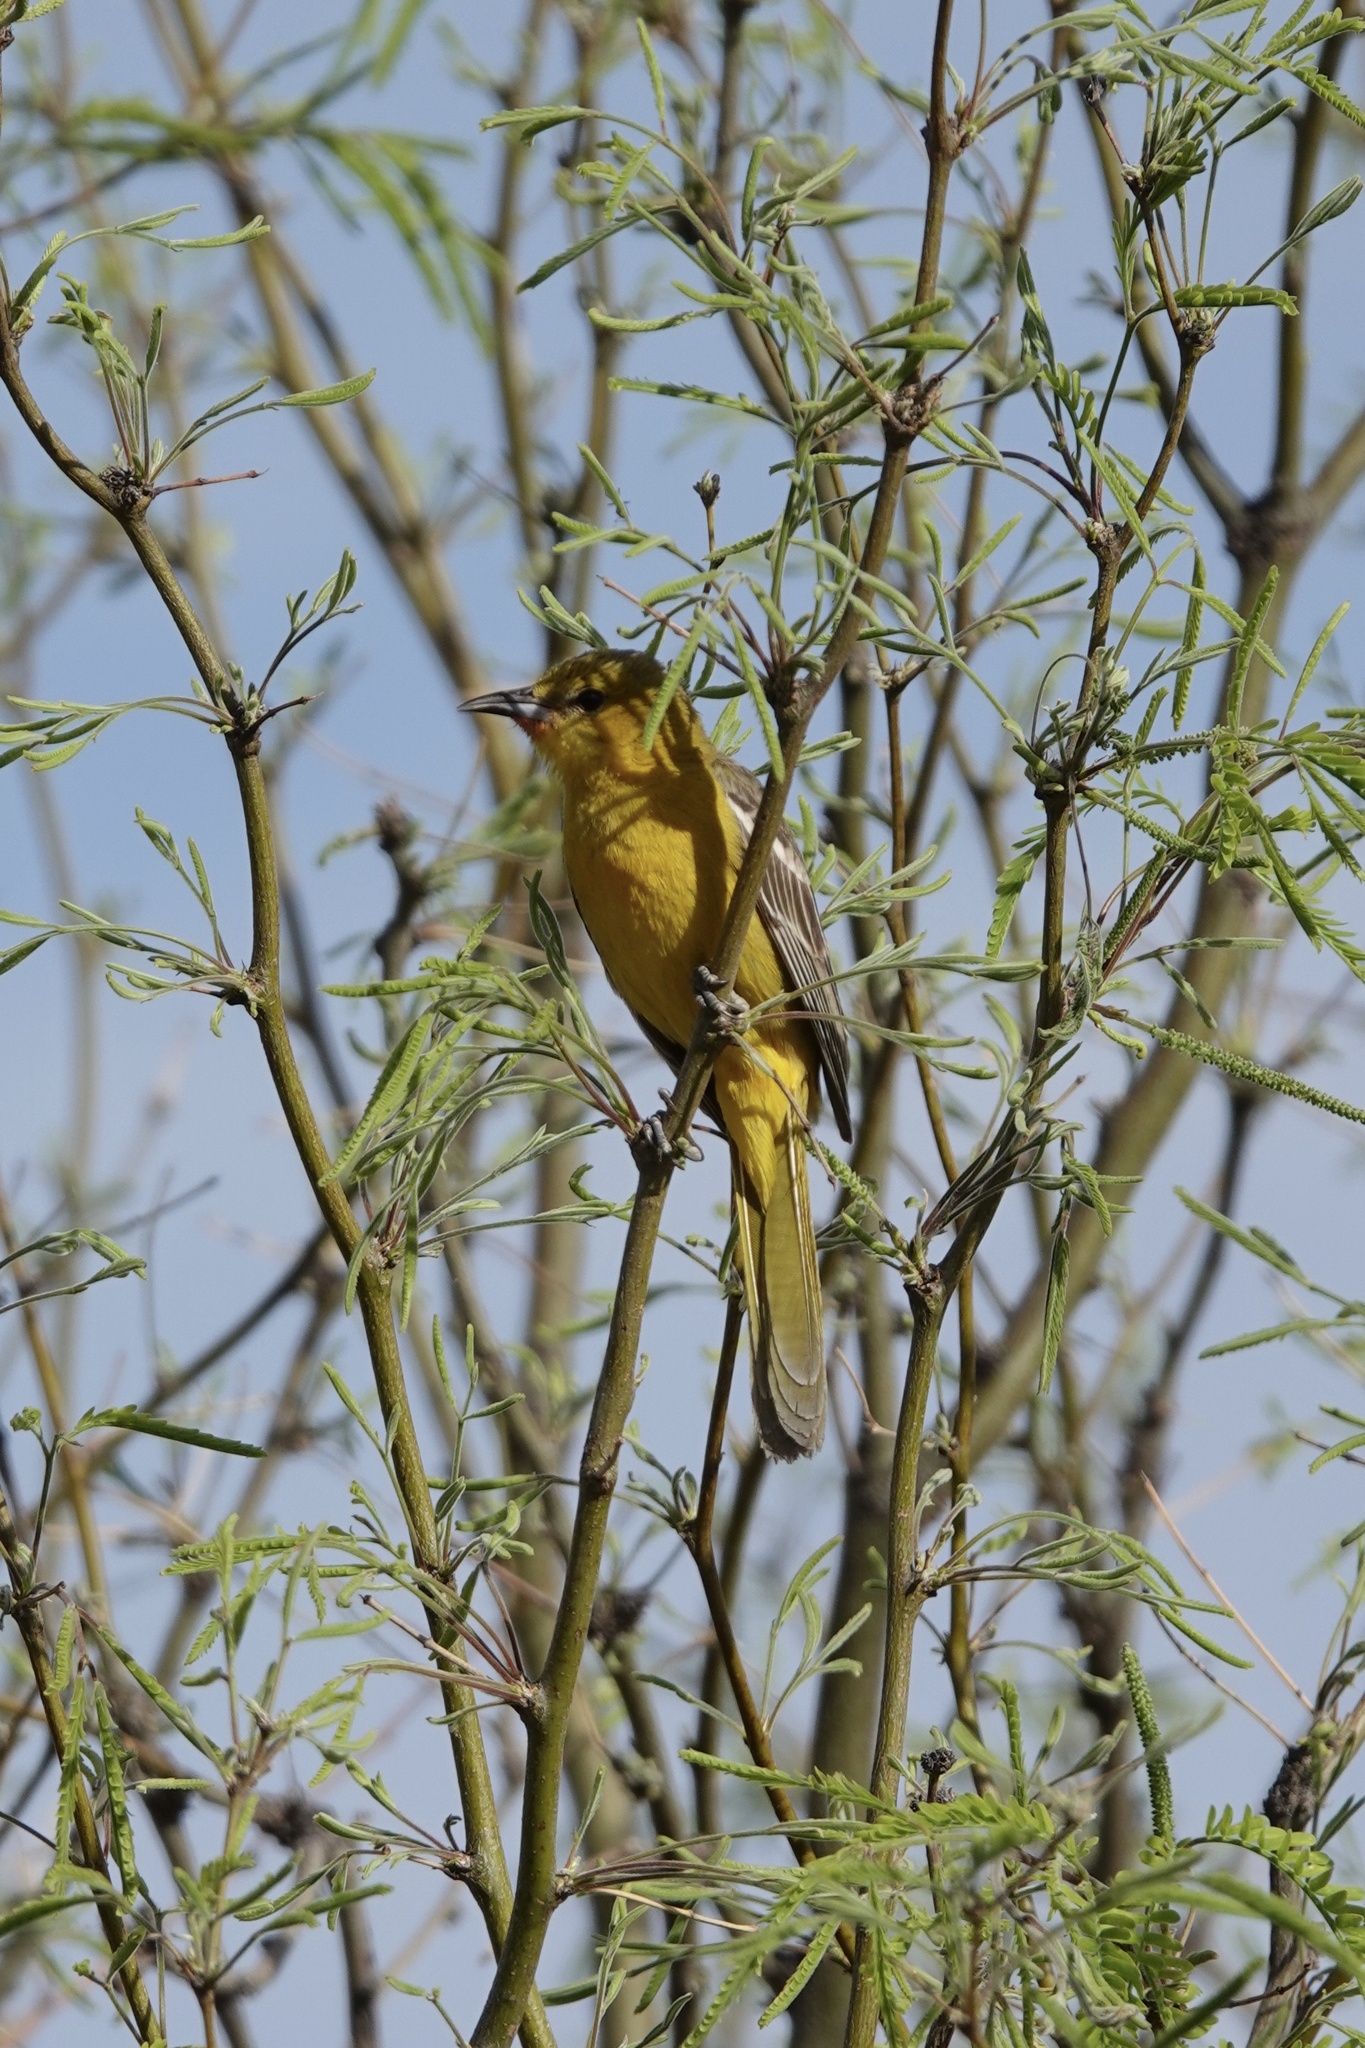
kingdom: Animalia
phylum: Chordata
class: Aves
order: Passeriformes
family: Icteridae
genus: Icterus
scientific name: Icterus cucullatus
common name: Hooded oriole
